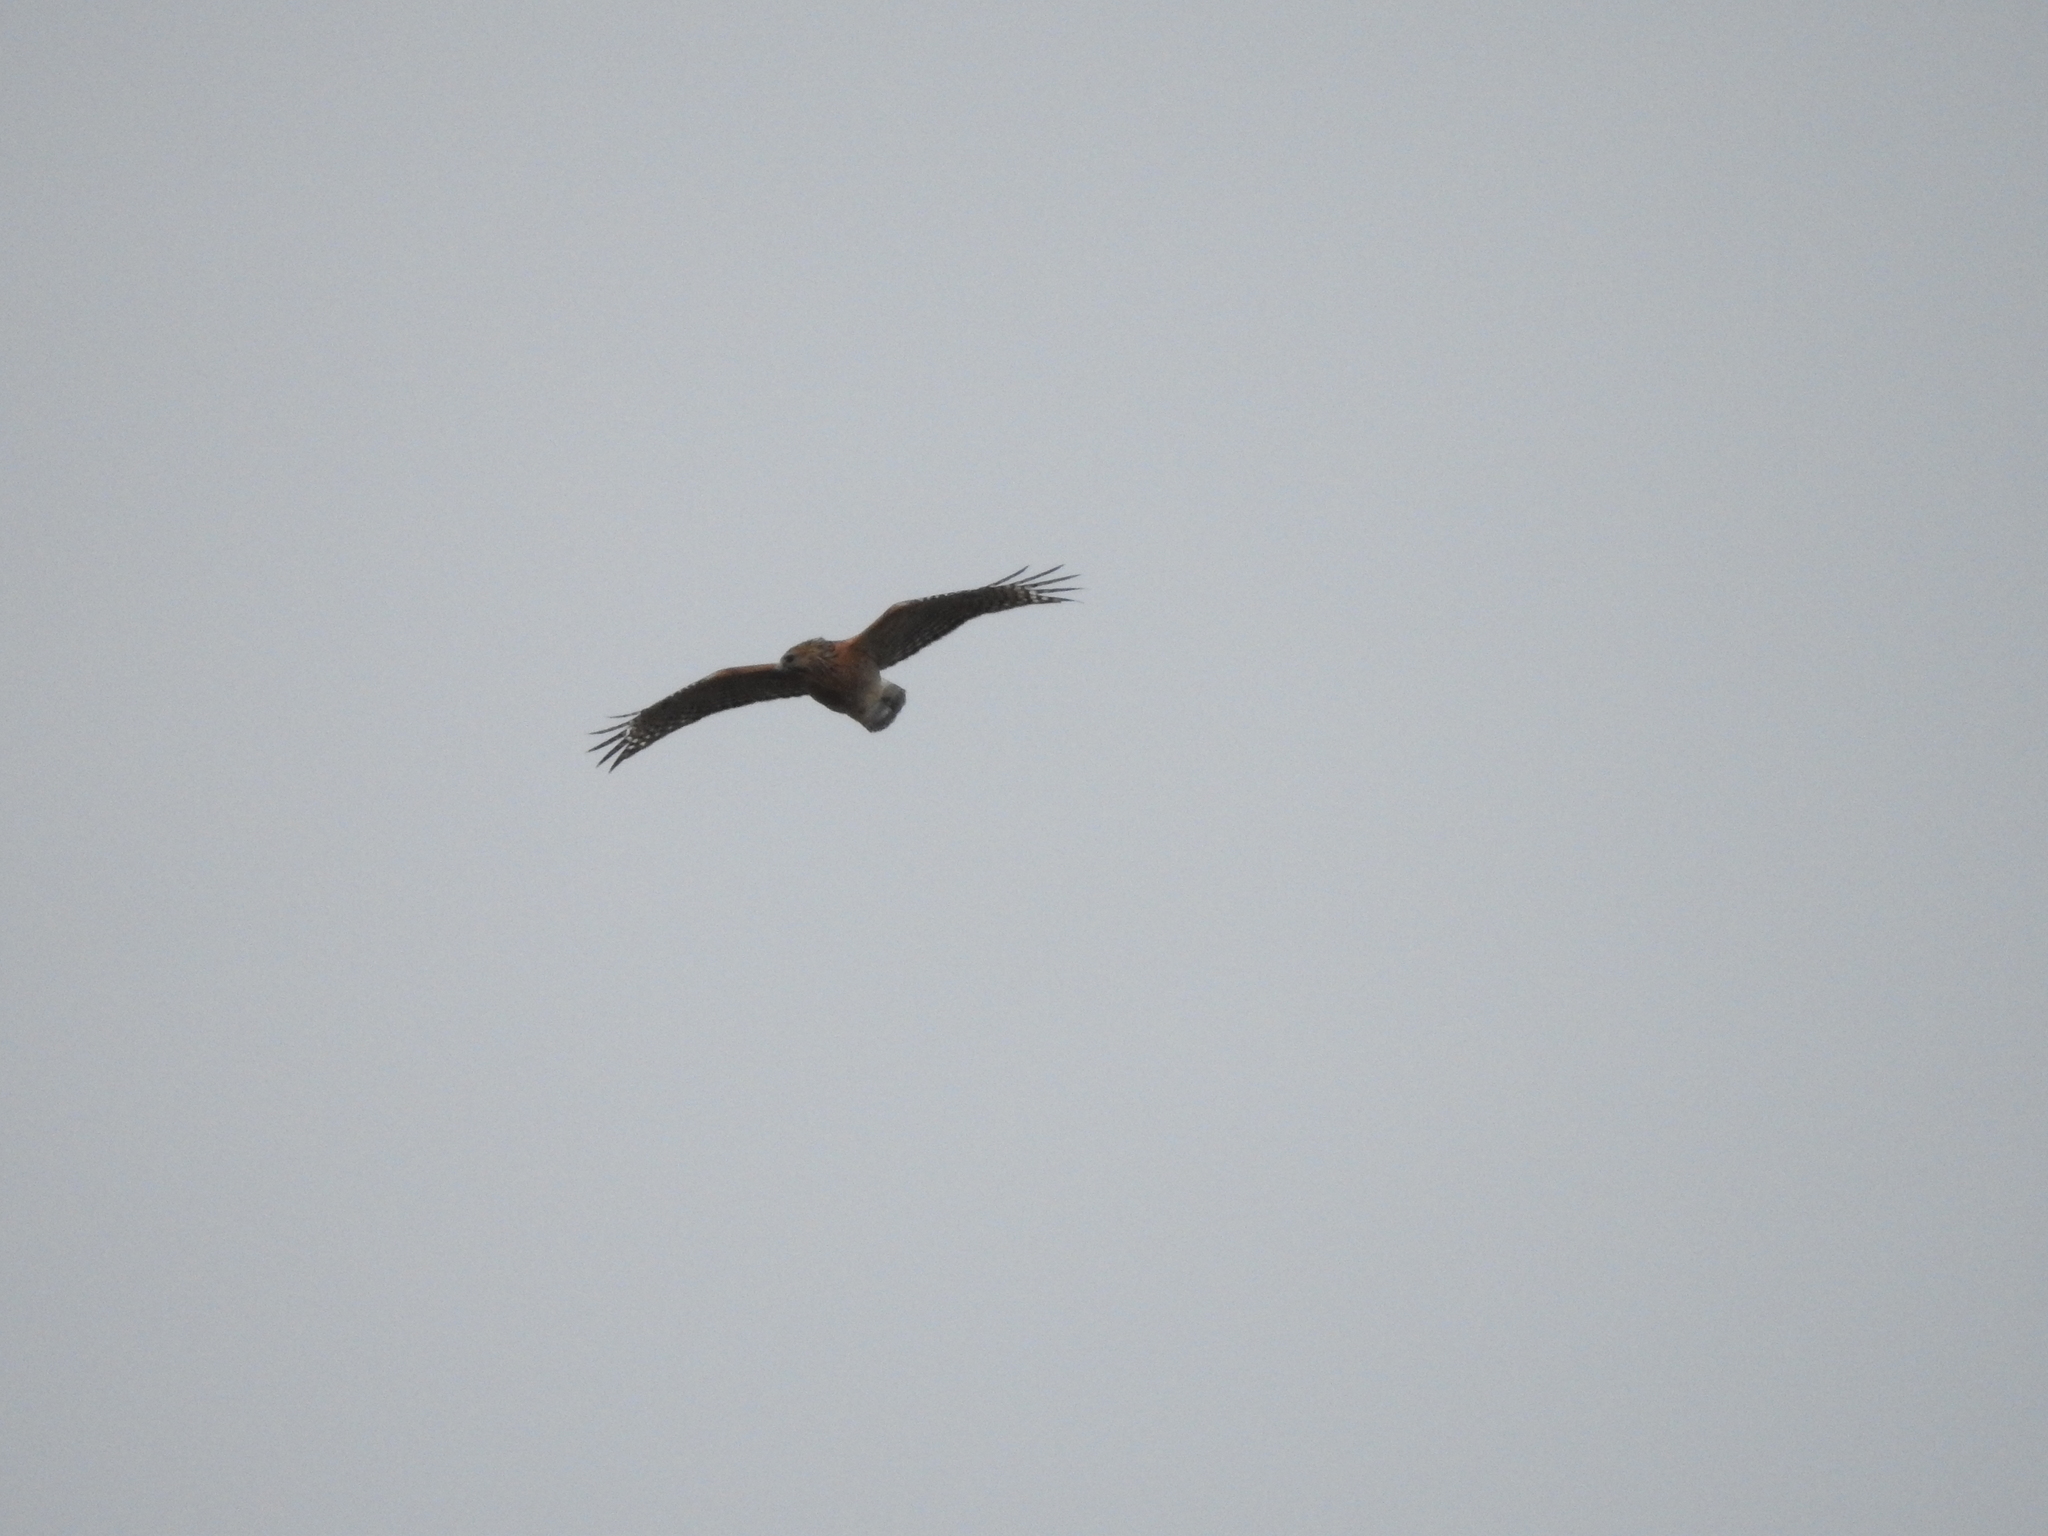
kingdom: Animalia
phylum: Chordata
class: Aves
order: Accipitriformes
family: Accipitridae
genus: Buteo
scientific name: Buteo lineatus
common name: Red-shouldered hawk
